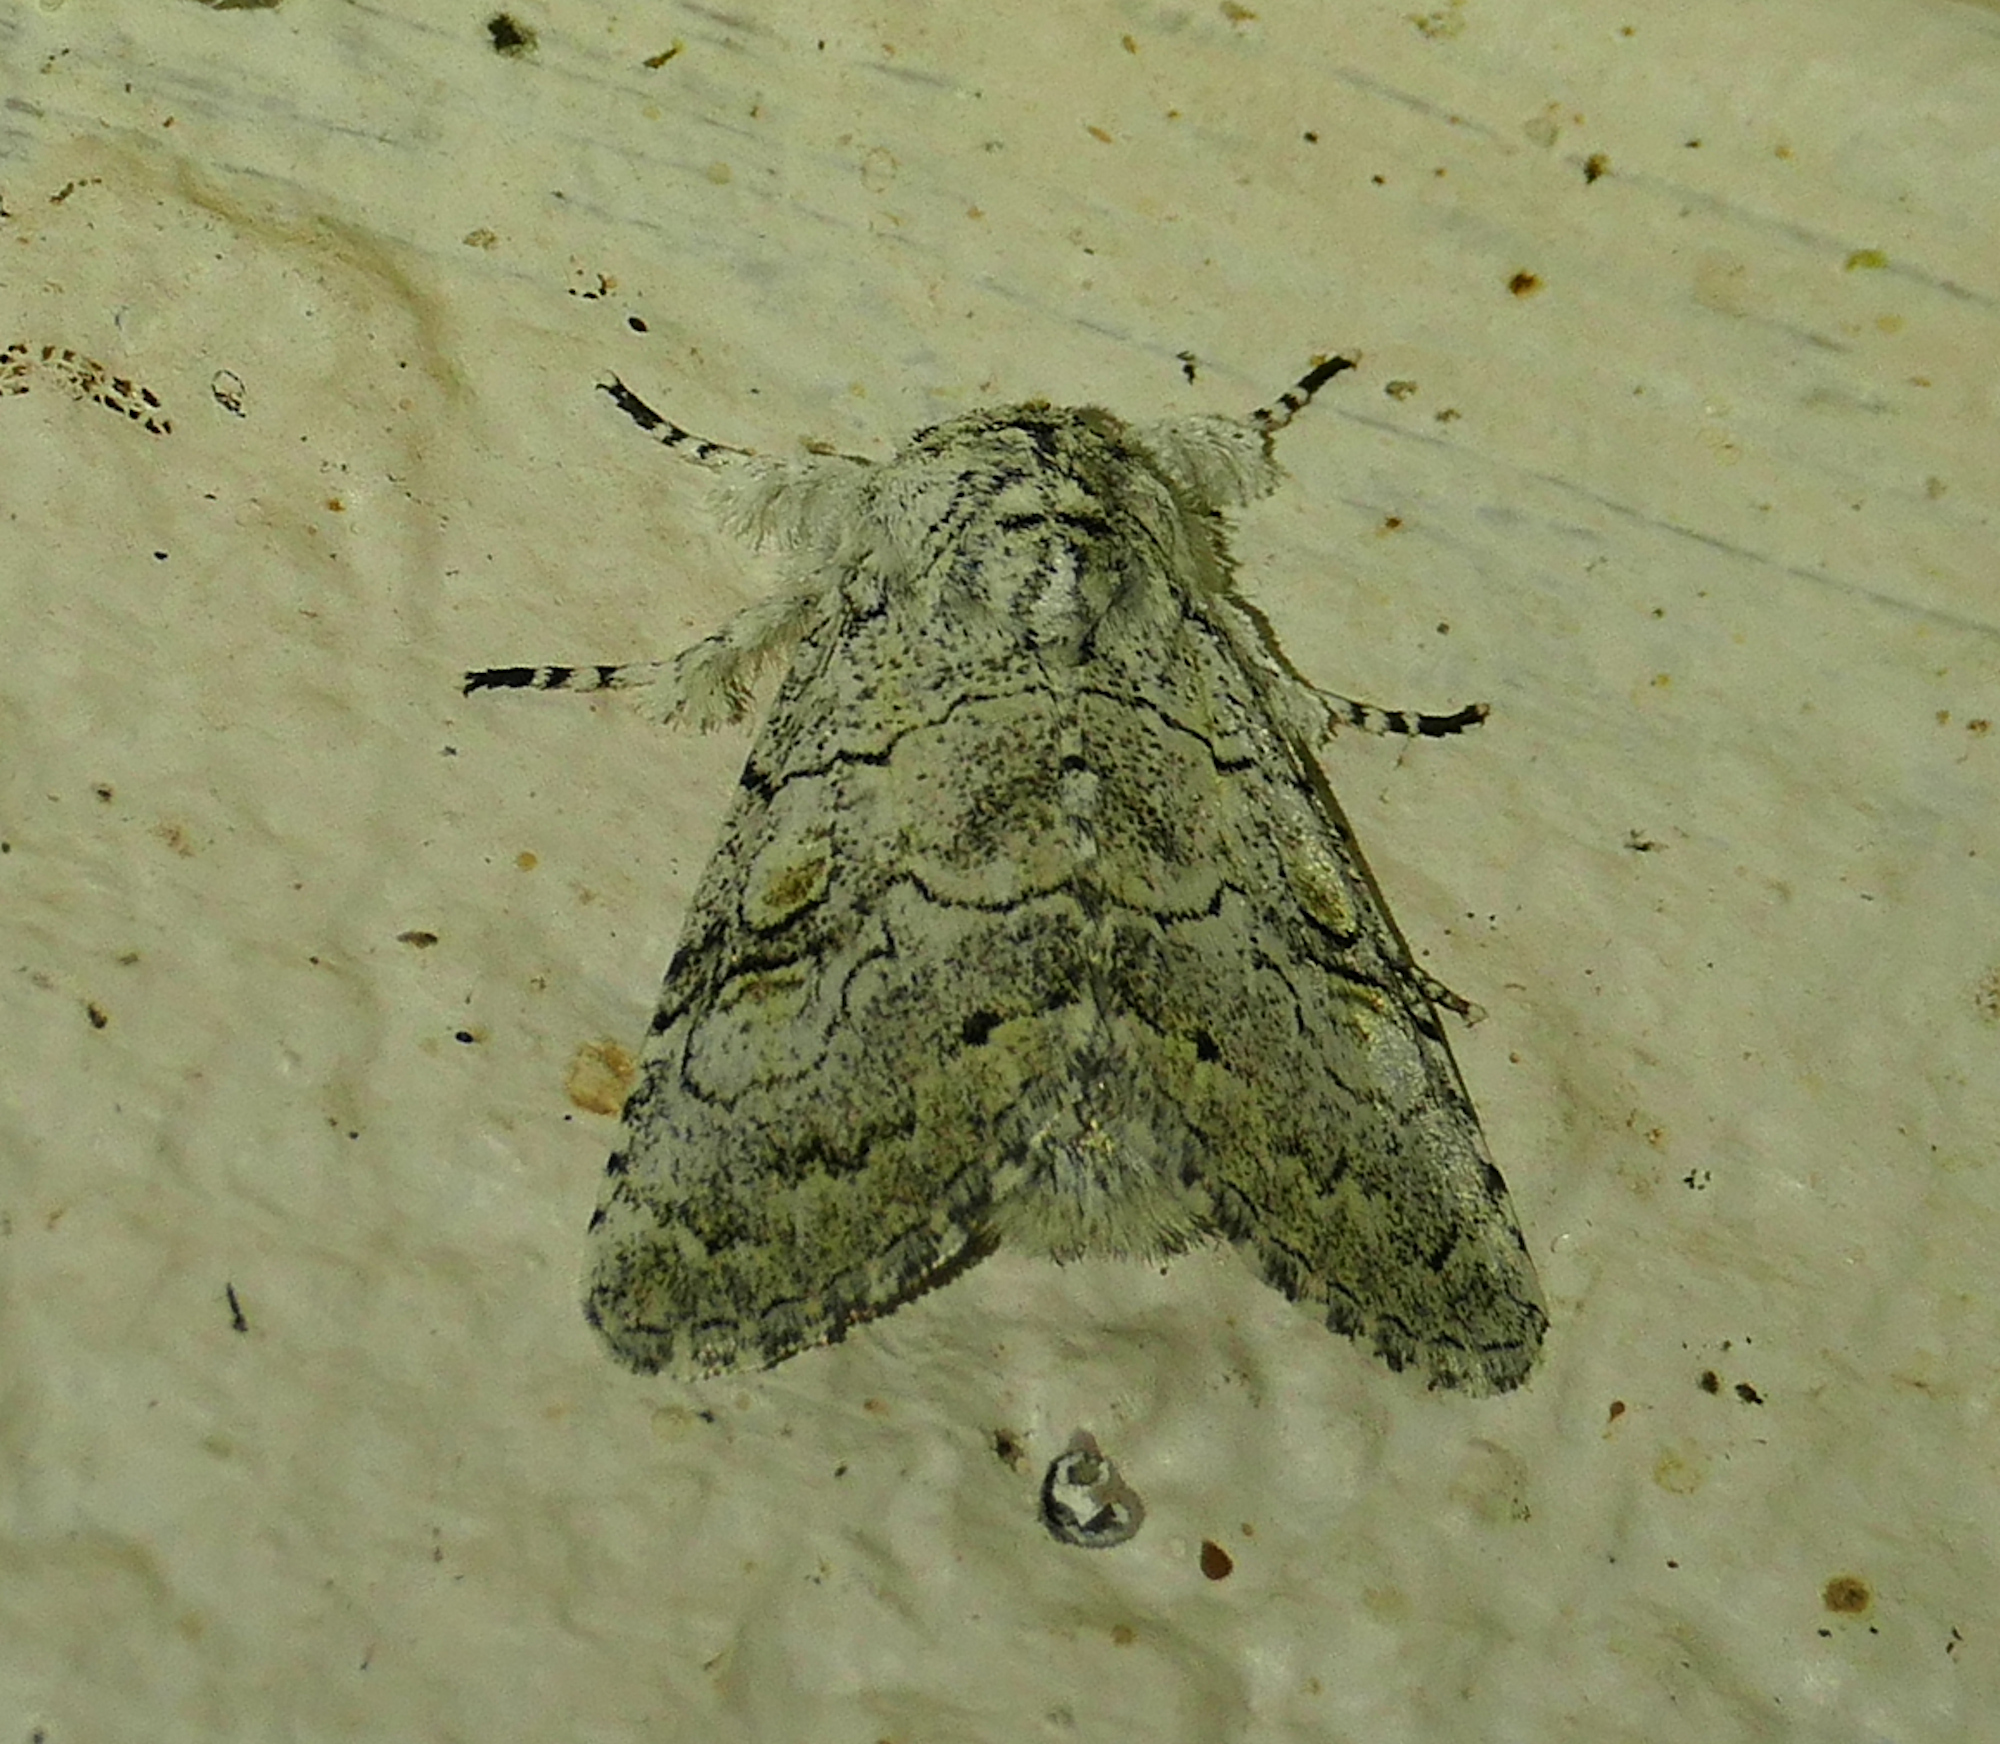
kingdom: Animalia
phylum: Arthropoda
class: Insecta
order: Lepidoptera
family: Noctuidae
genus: Charadra
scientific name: Charadra dispulsa
